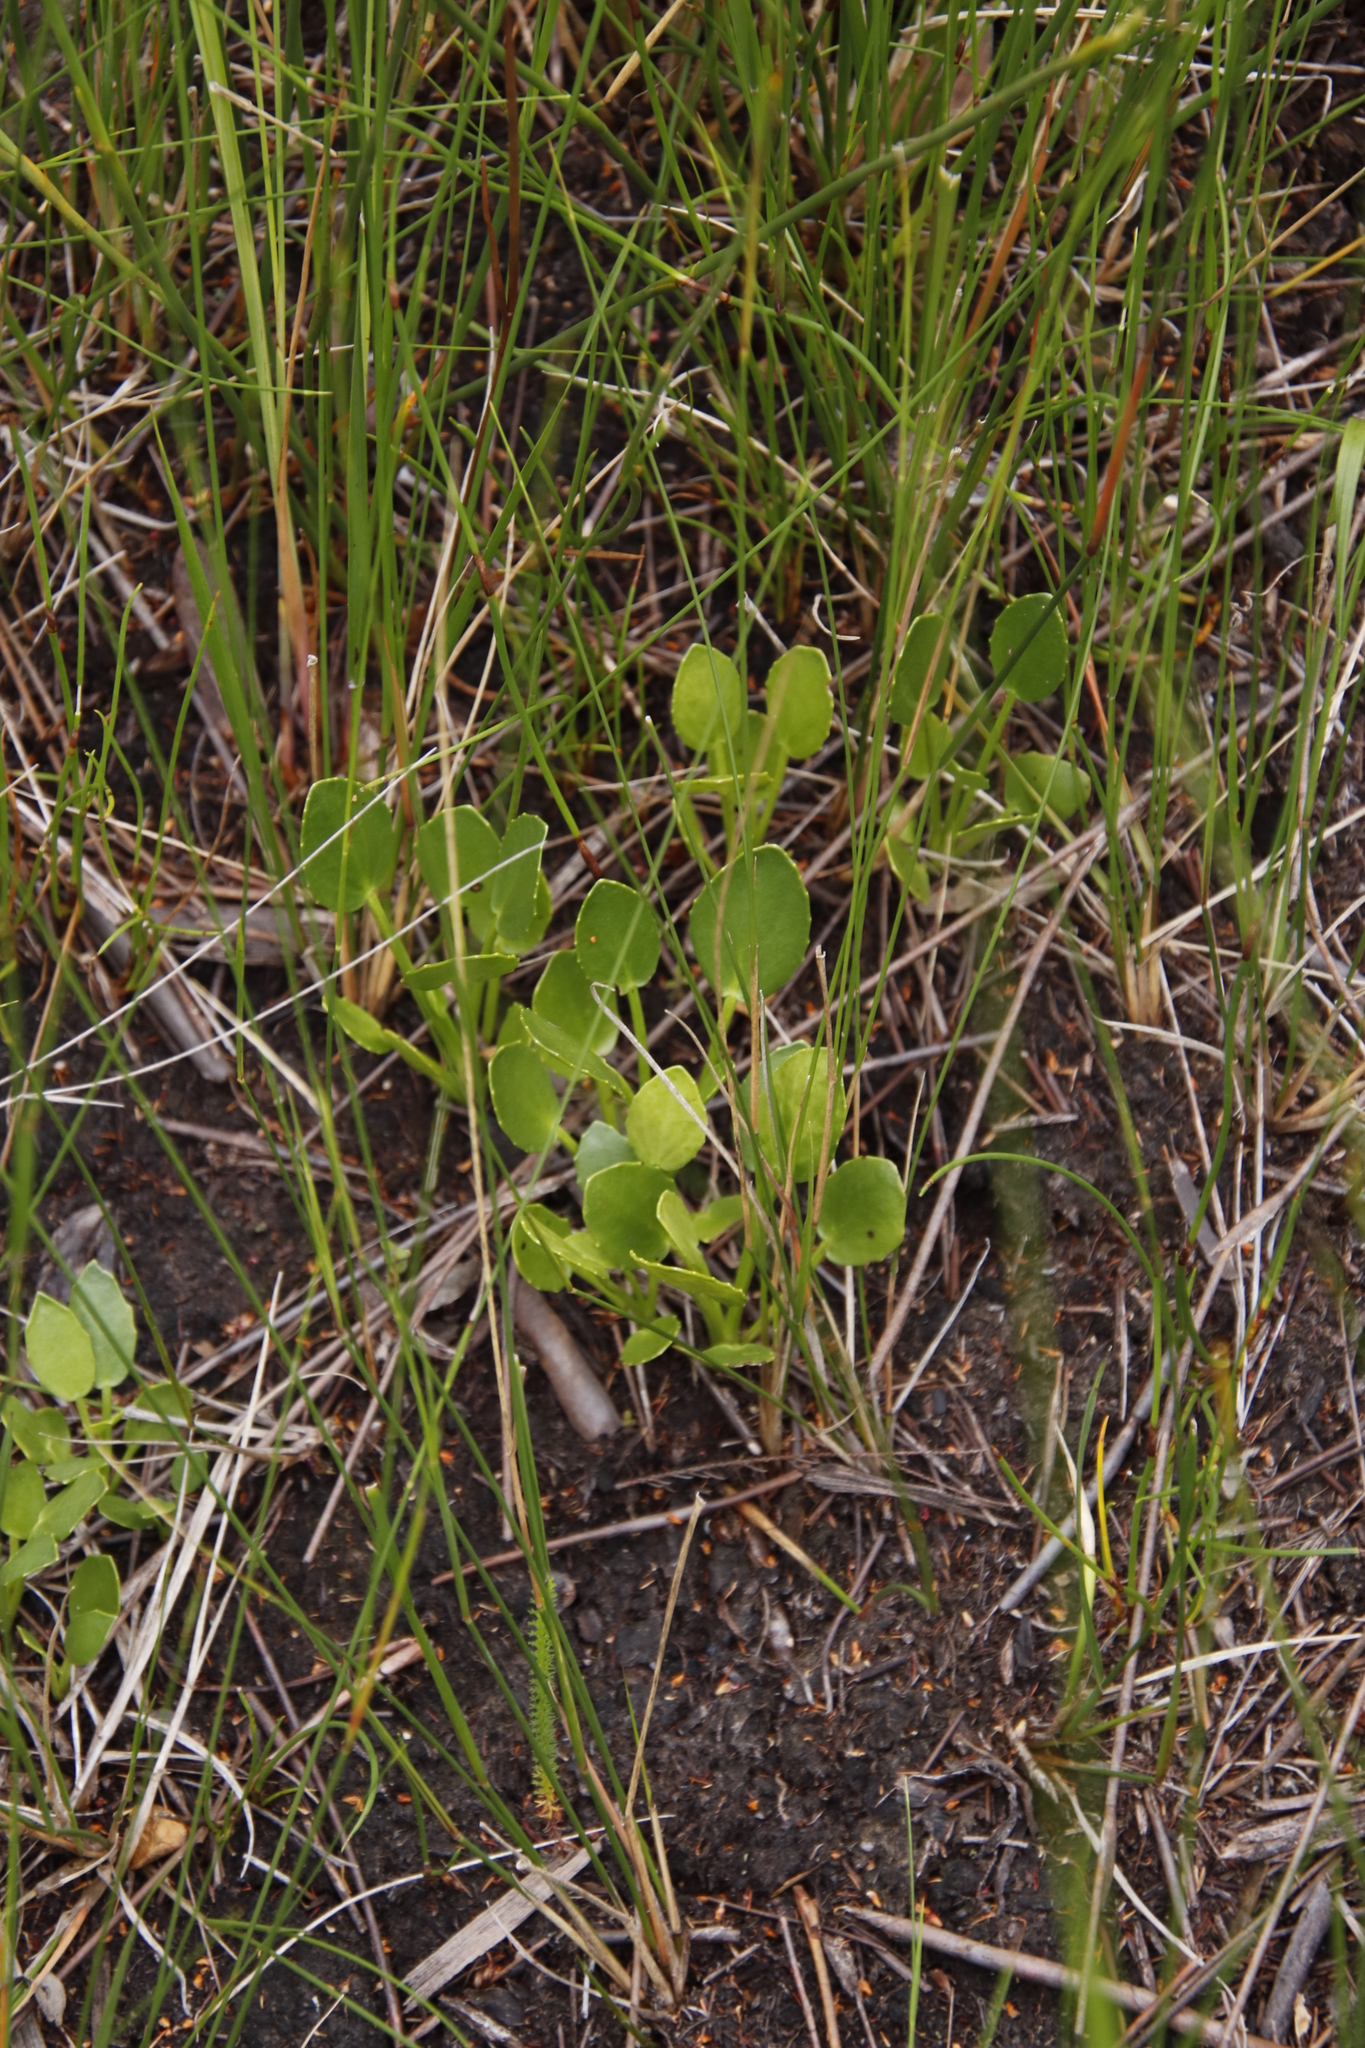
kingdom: Plantae
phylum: Tracheophyta
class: Magnoliopsida
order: Asterales
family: Menyanthaceae
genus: Villarsia
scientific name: Villarsia manningiana
